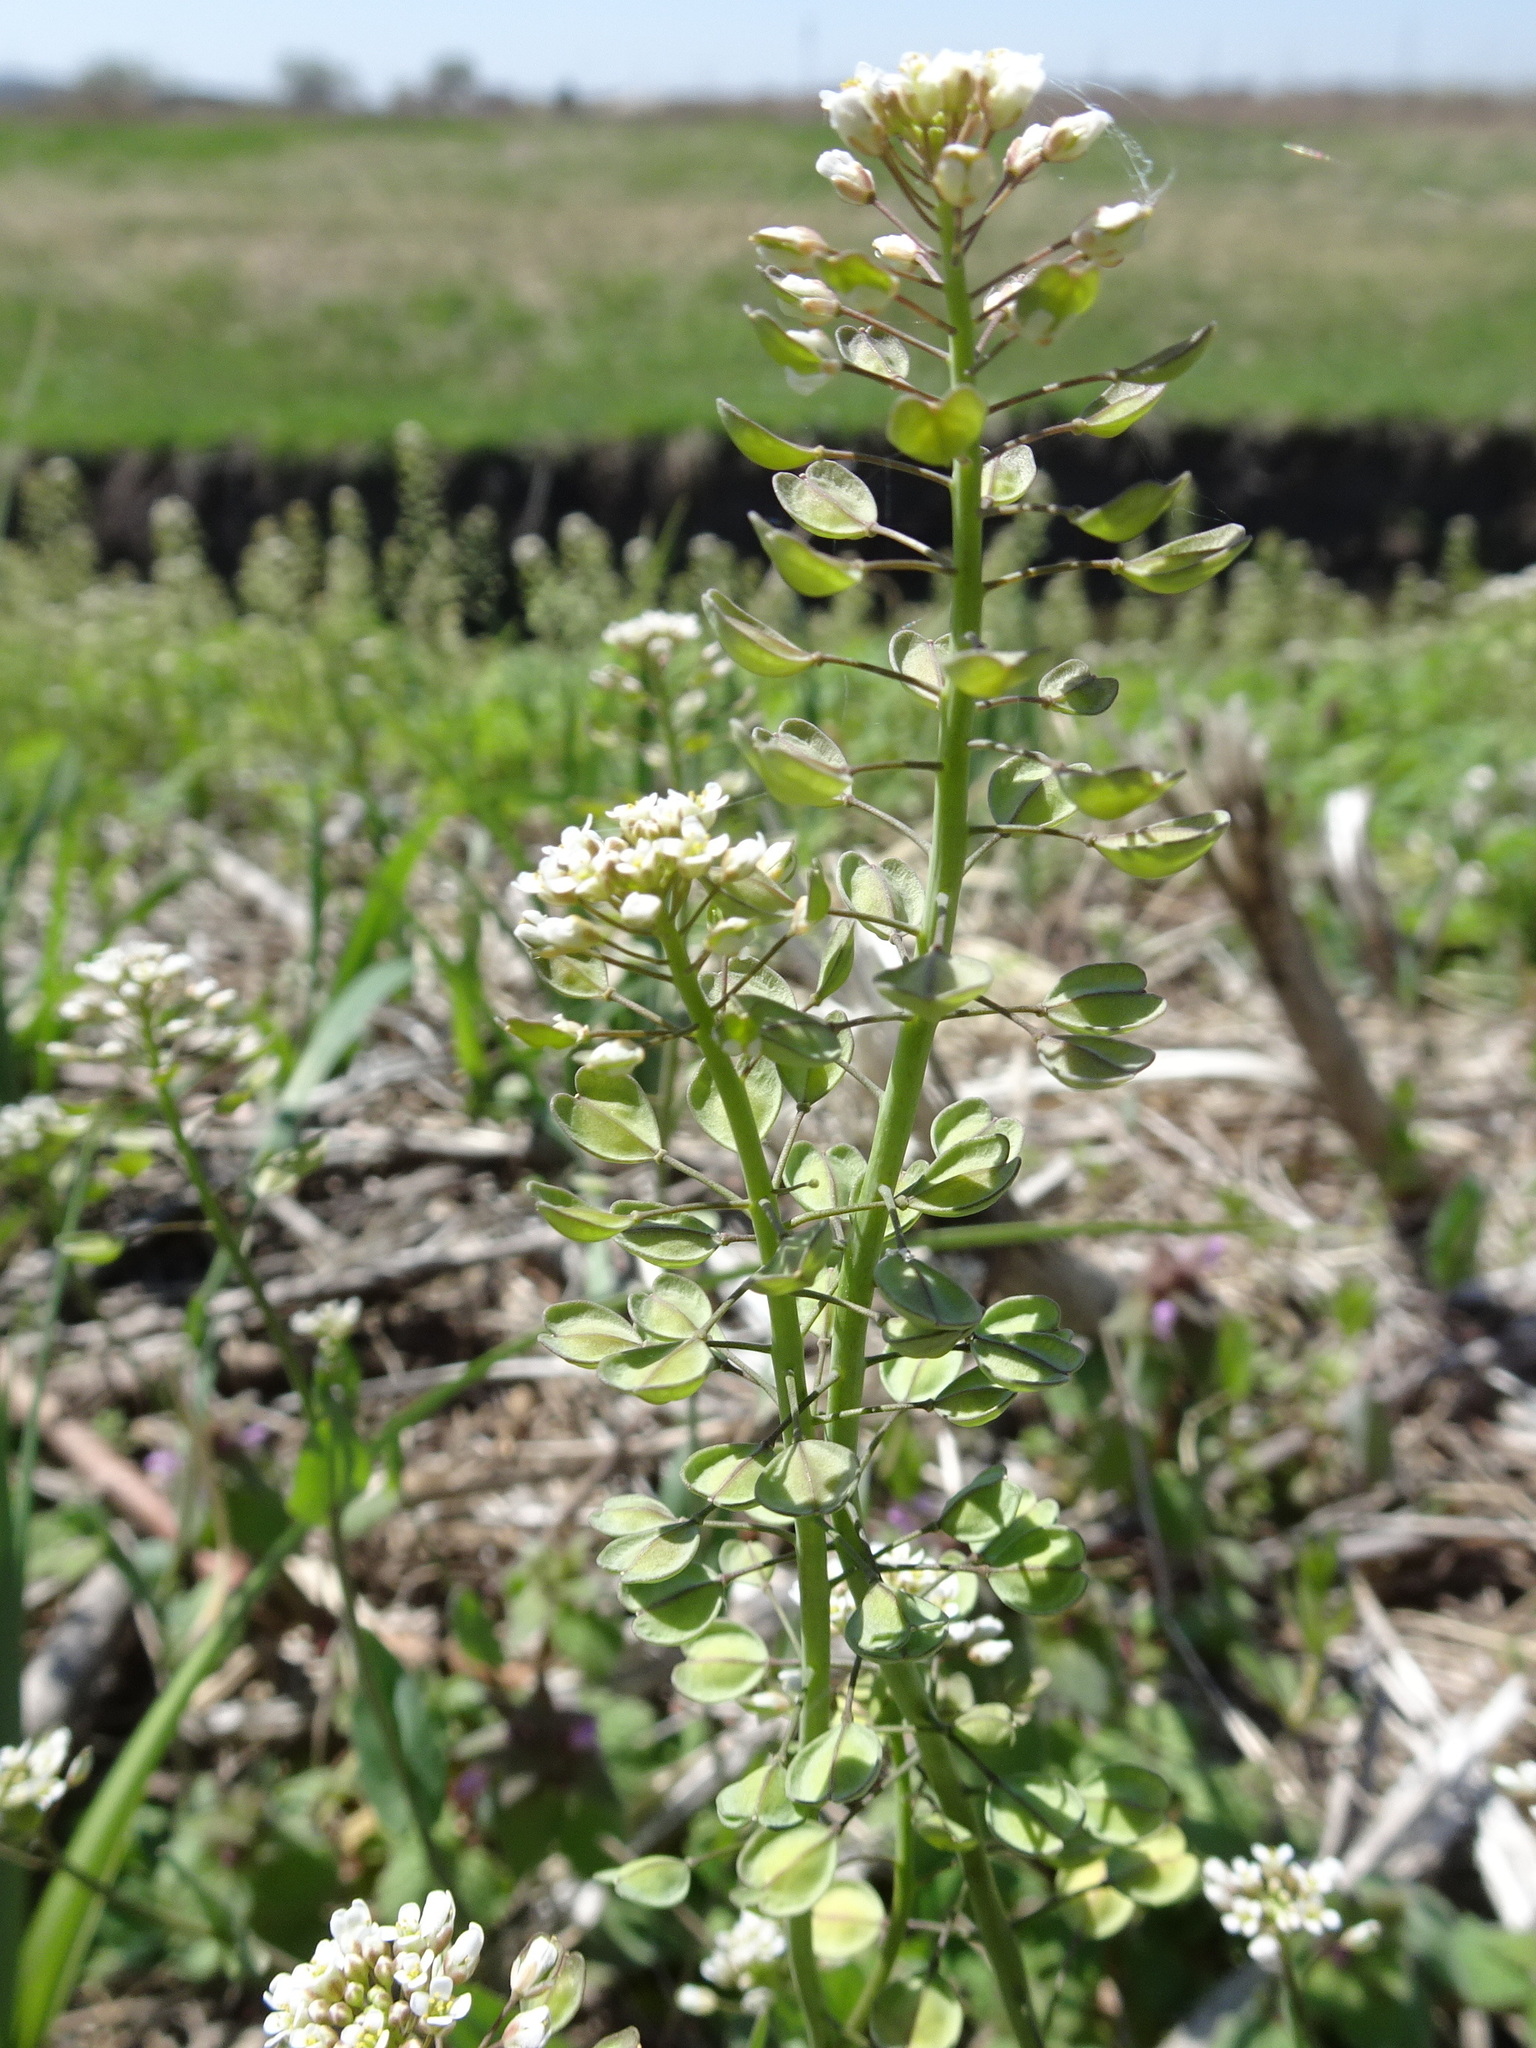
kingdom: Plantae
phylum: Tracheophyta
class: Magnoliopsida
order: Brassicales
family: Brassicaceae
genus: Noccaea
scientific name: Noccaea perfoliata
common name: Perfoliate pennycress
